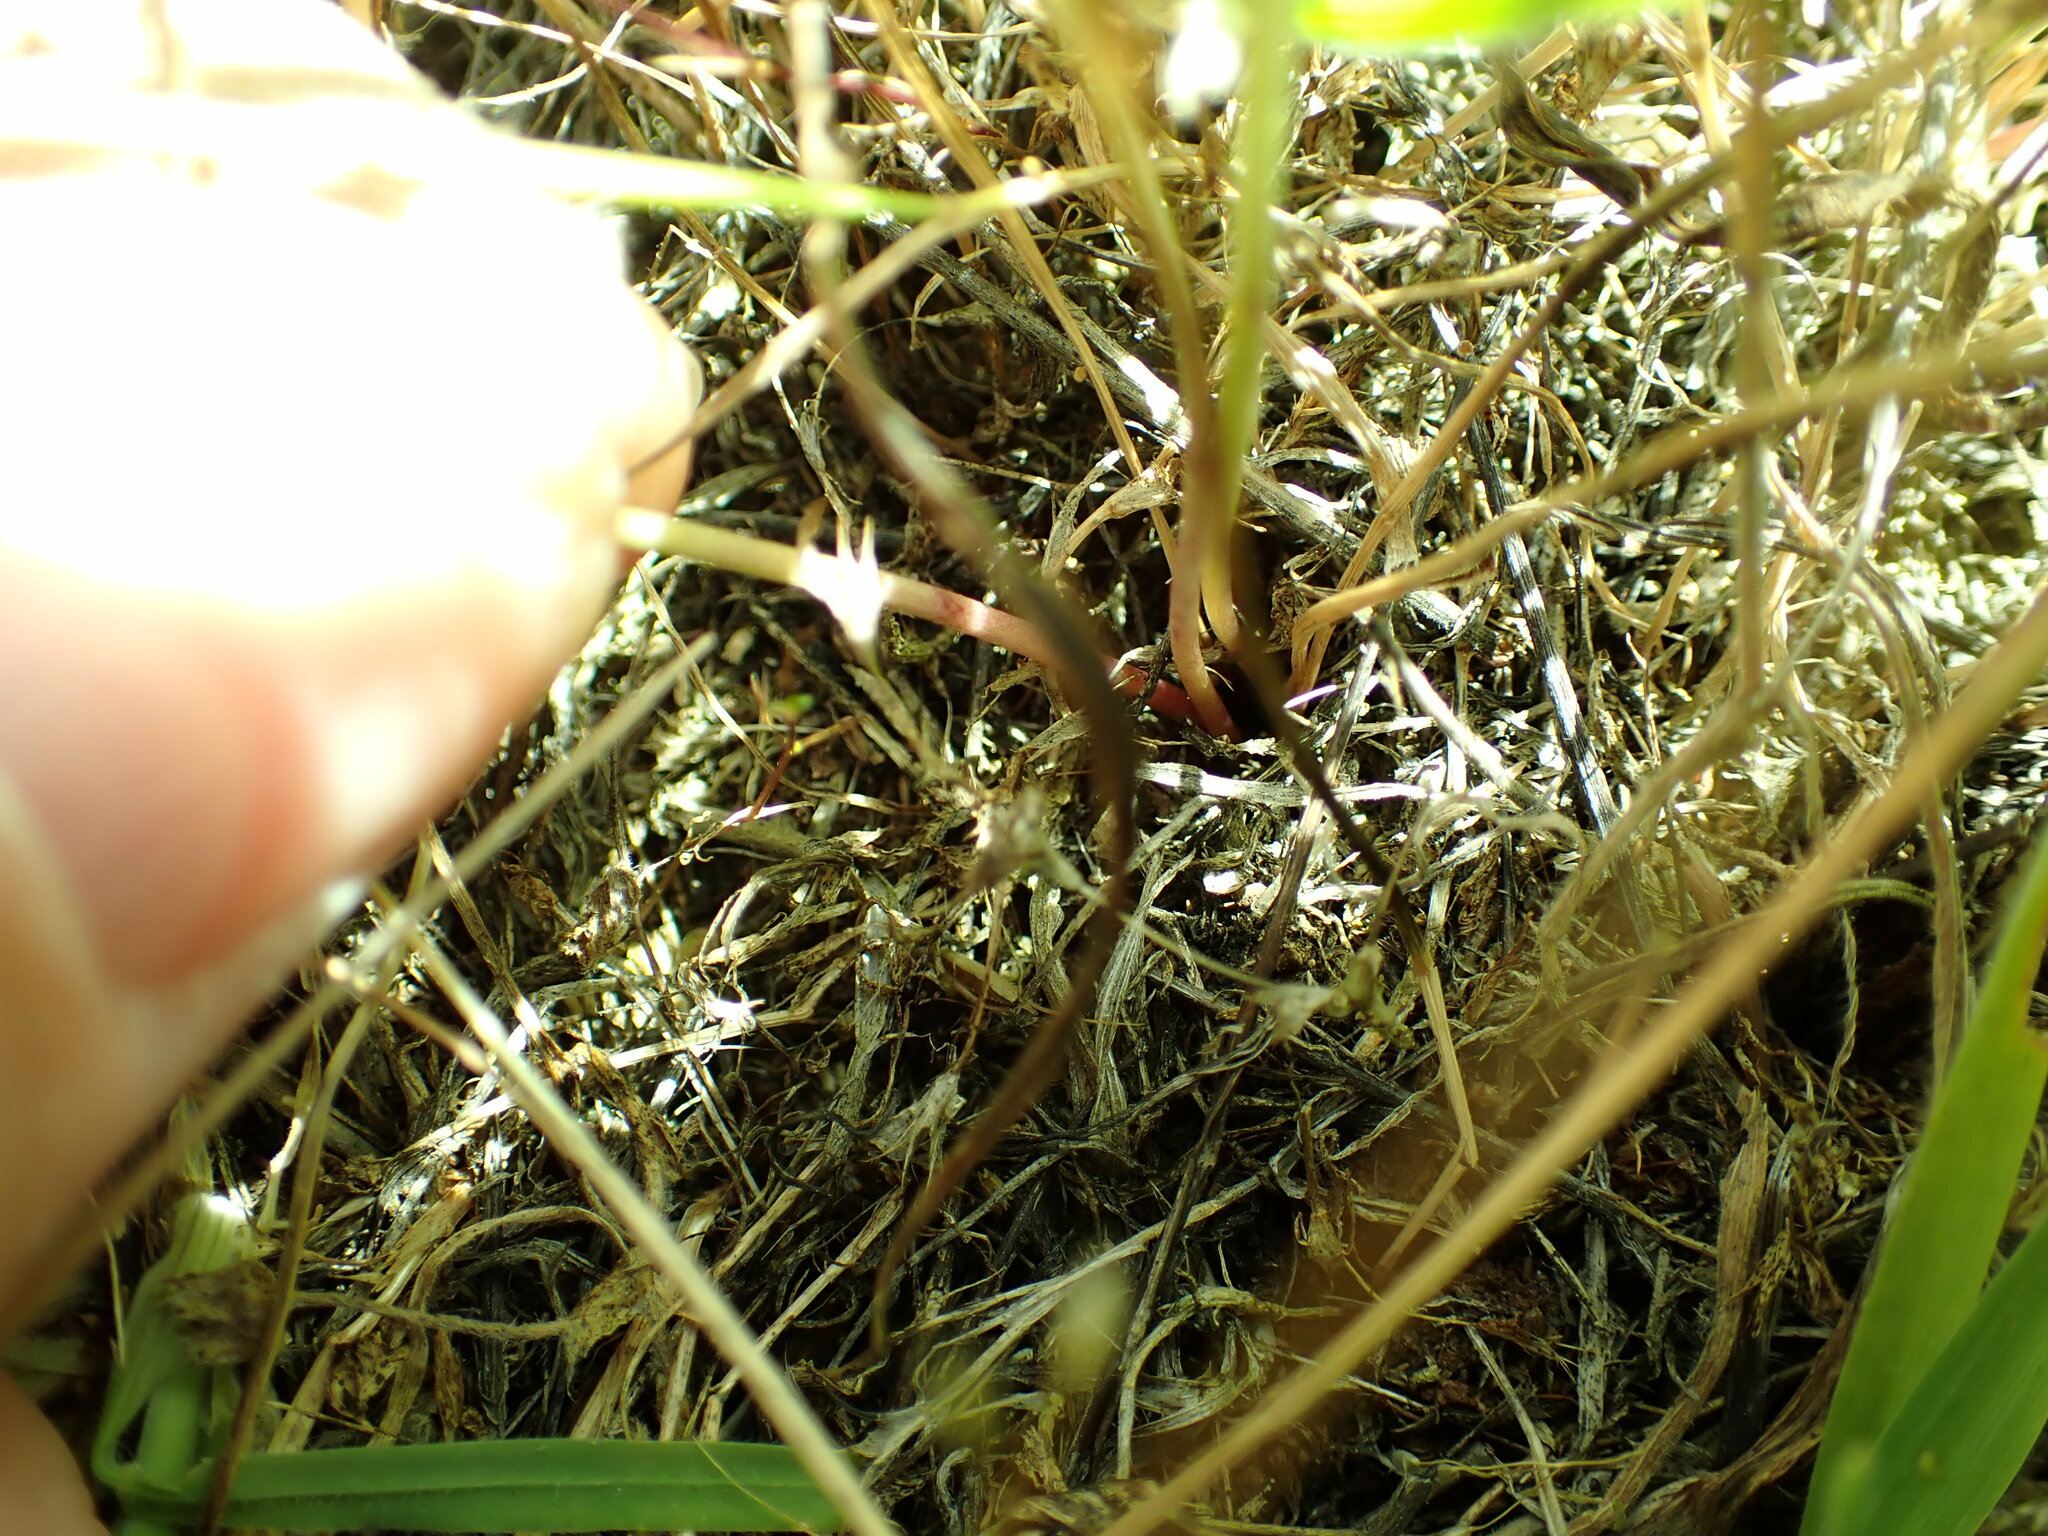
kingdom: Plantae
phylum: Tracheophyta
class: Liliopsida
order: Asparagales
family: Asparagaceae
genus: Brodiaea
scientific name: Brodiaea coronaria
